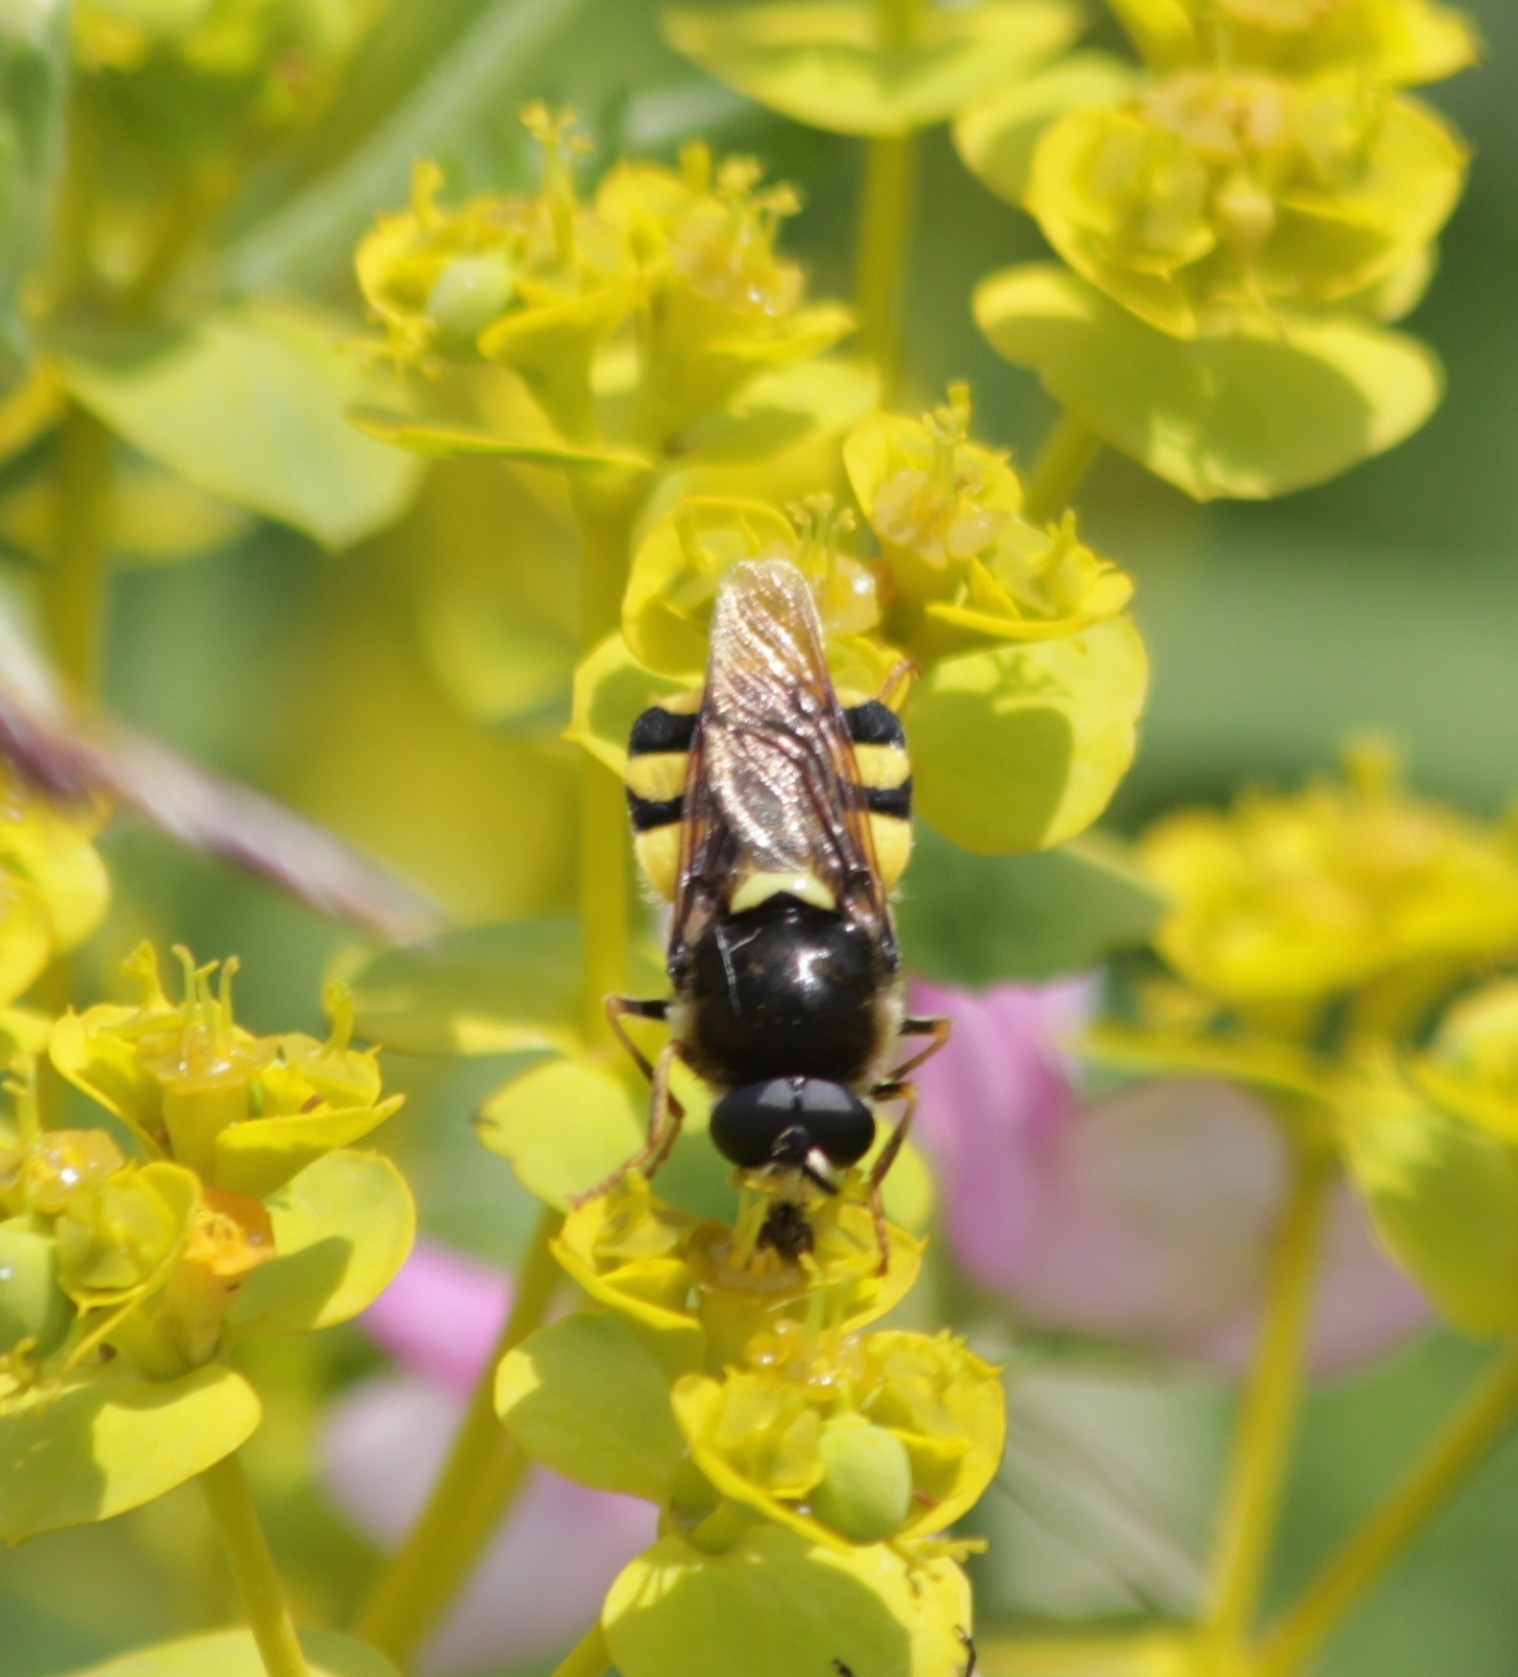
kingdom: Animalia
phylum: Arthropoda
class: Insecta
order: Diptera
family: Stratiomyidae
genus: Stratiomys
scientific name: Stratiomys chamaeleon
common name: Clubbed general
